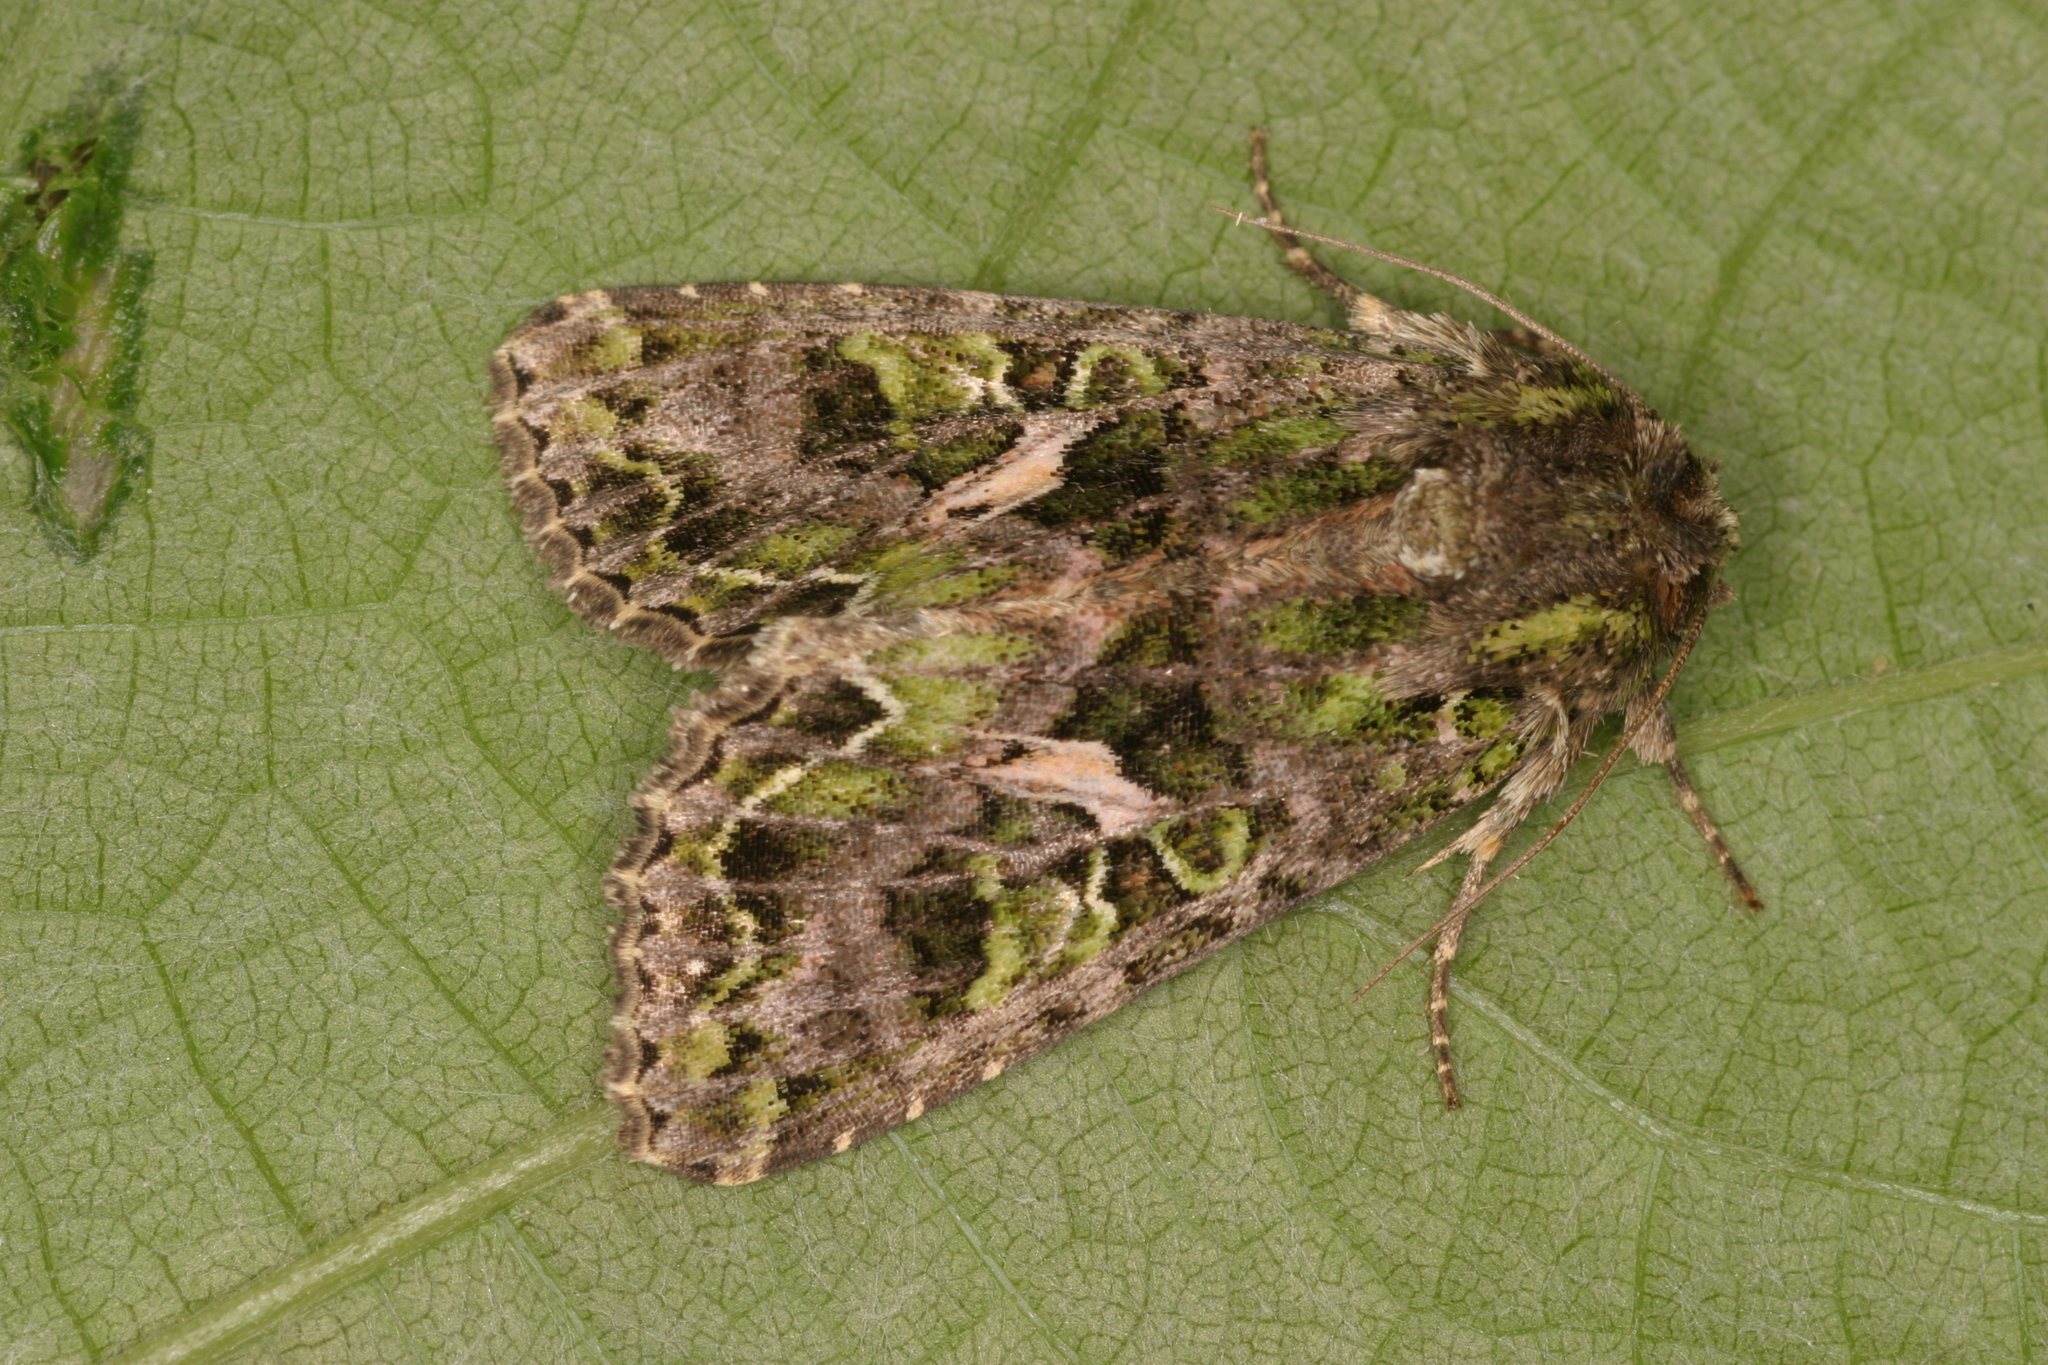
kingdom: Animalia
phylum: Arthropoda
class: Insecta
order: Lepidoptera
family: Noctuidae
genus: Trachea
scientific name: Trachea atriplicis
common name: Orache moth
